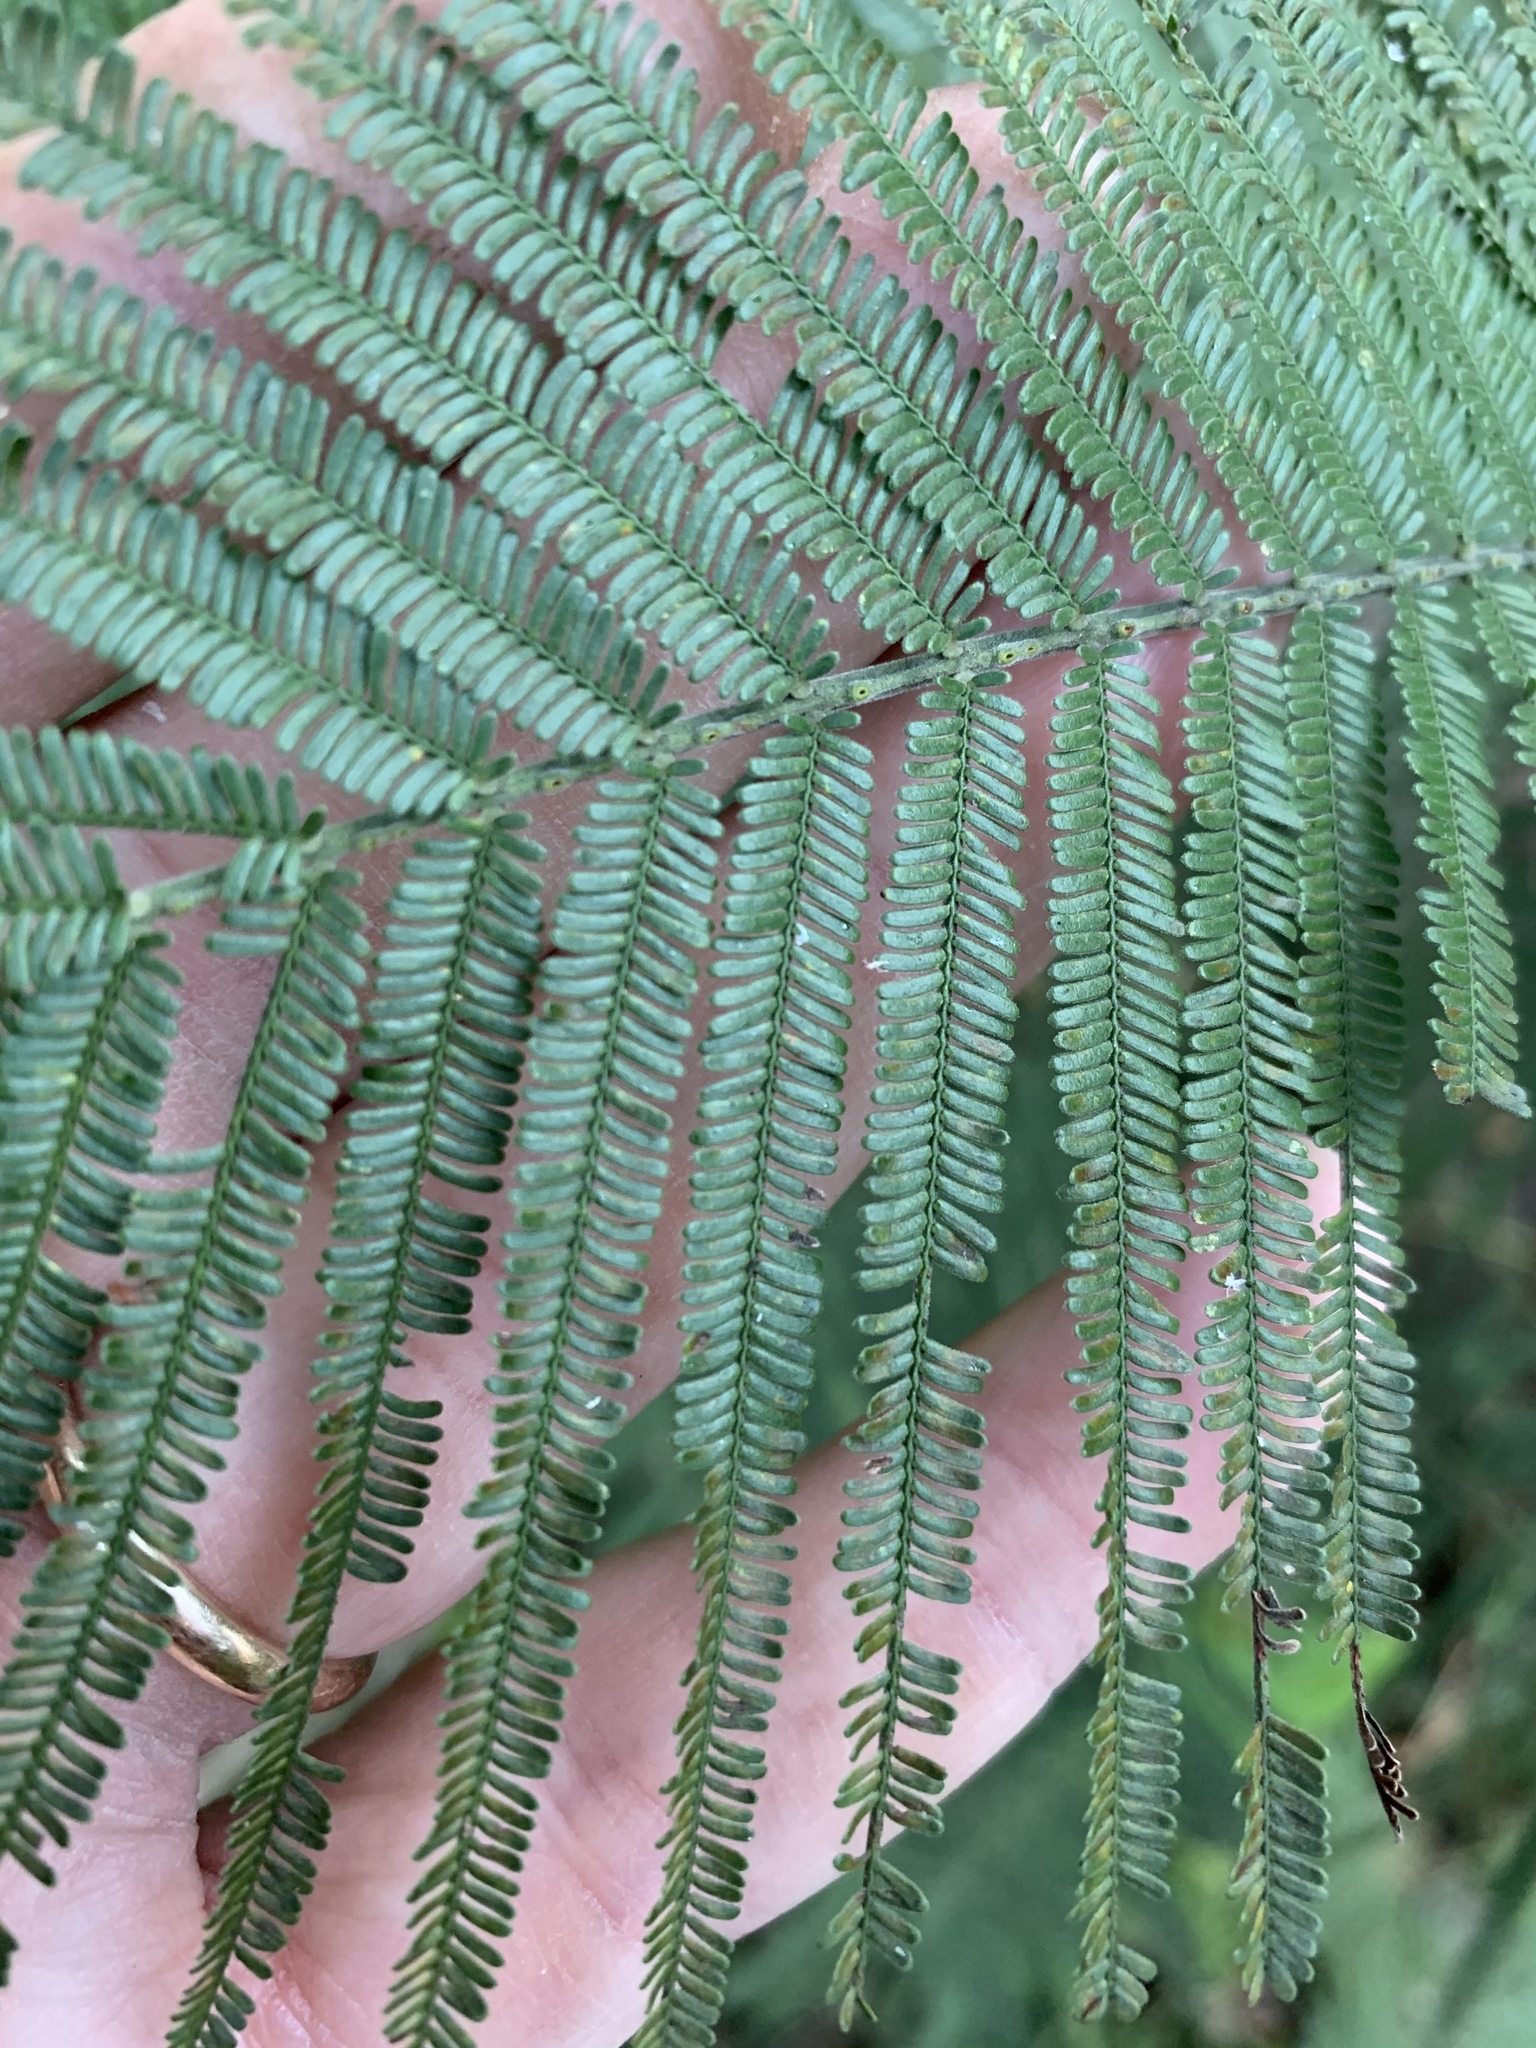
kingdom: Plantae
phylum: Tracheophyta
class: Magnoliopsida
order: Fabales
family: Fabaceae
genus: Acacia
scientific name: Acacia mearnsii
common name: Black wattle
